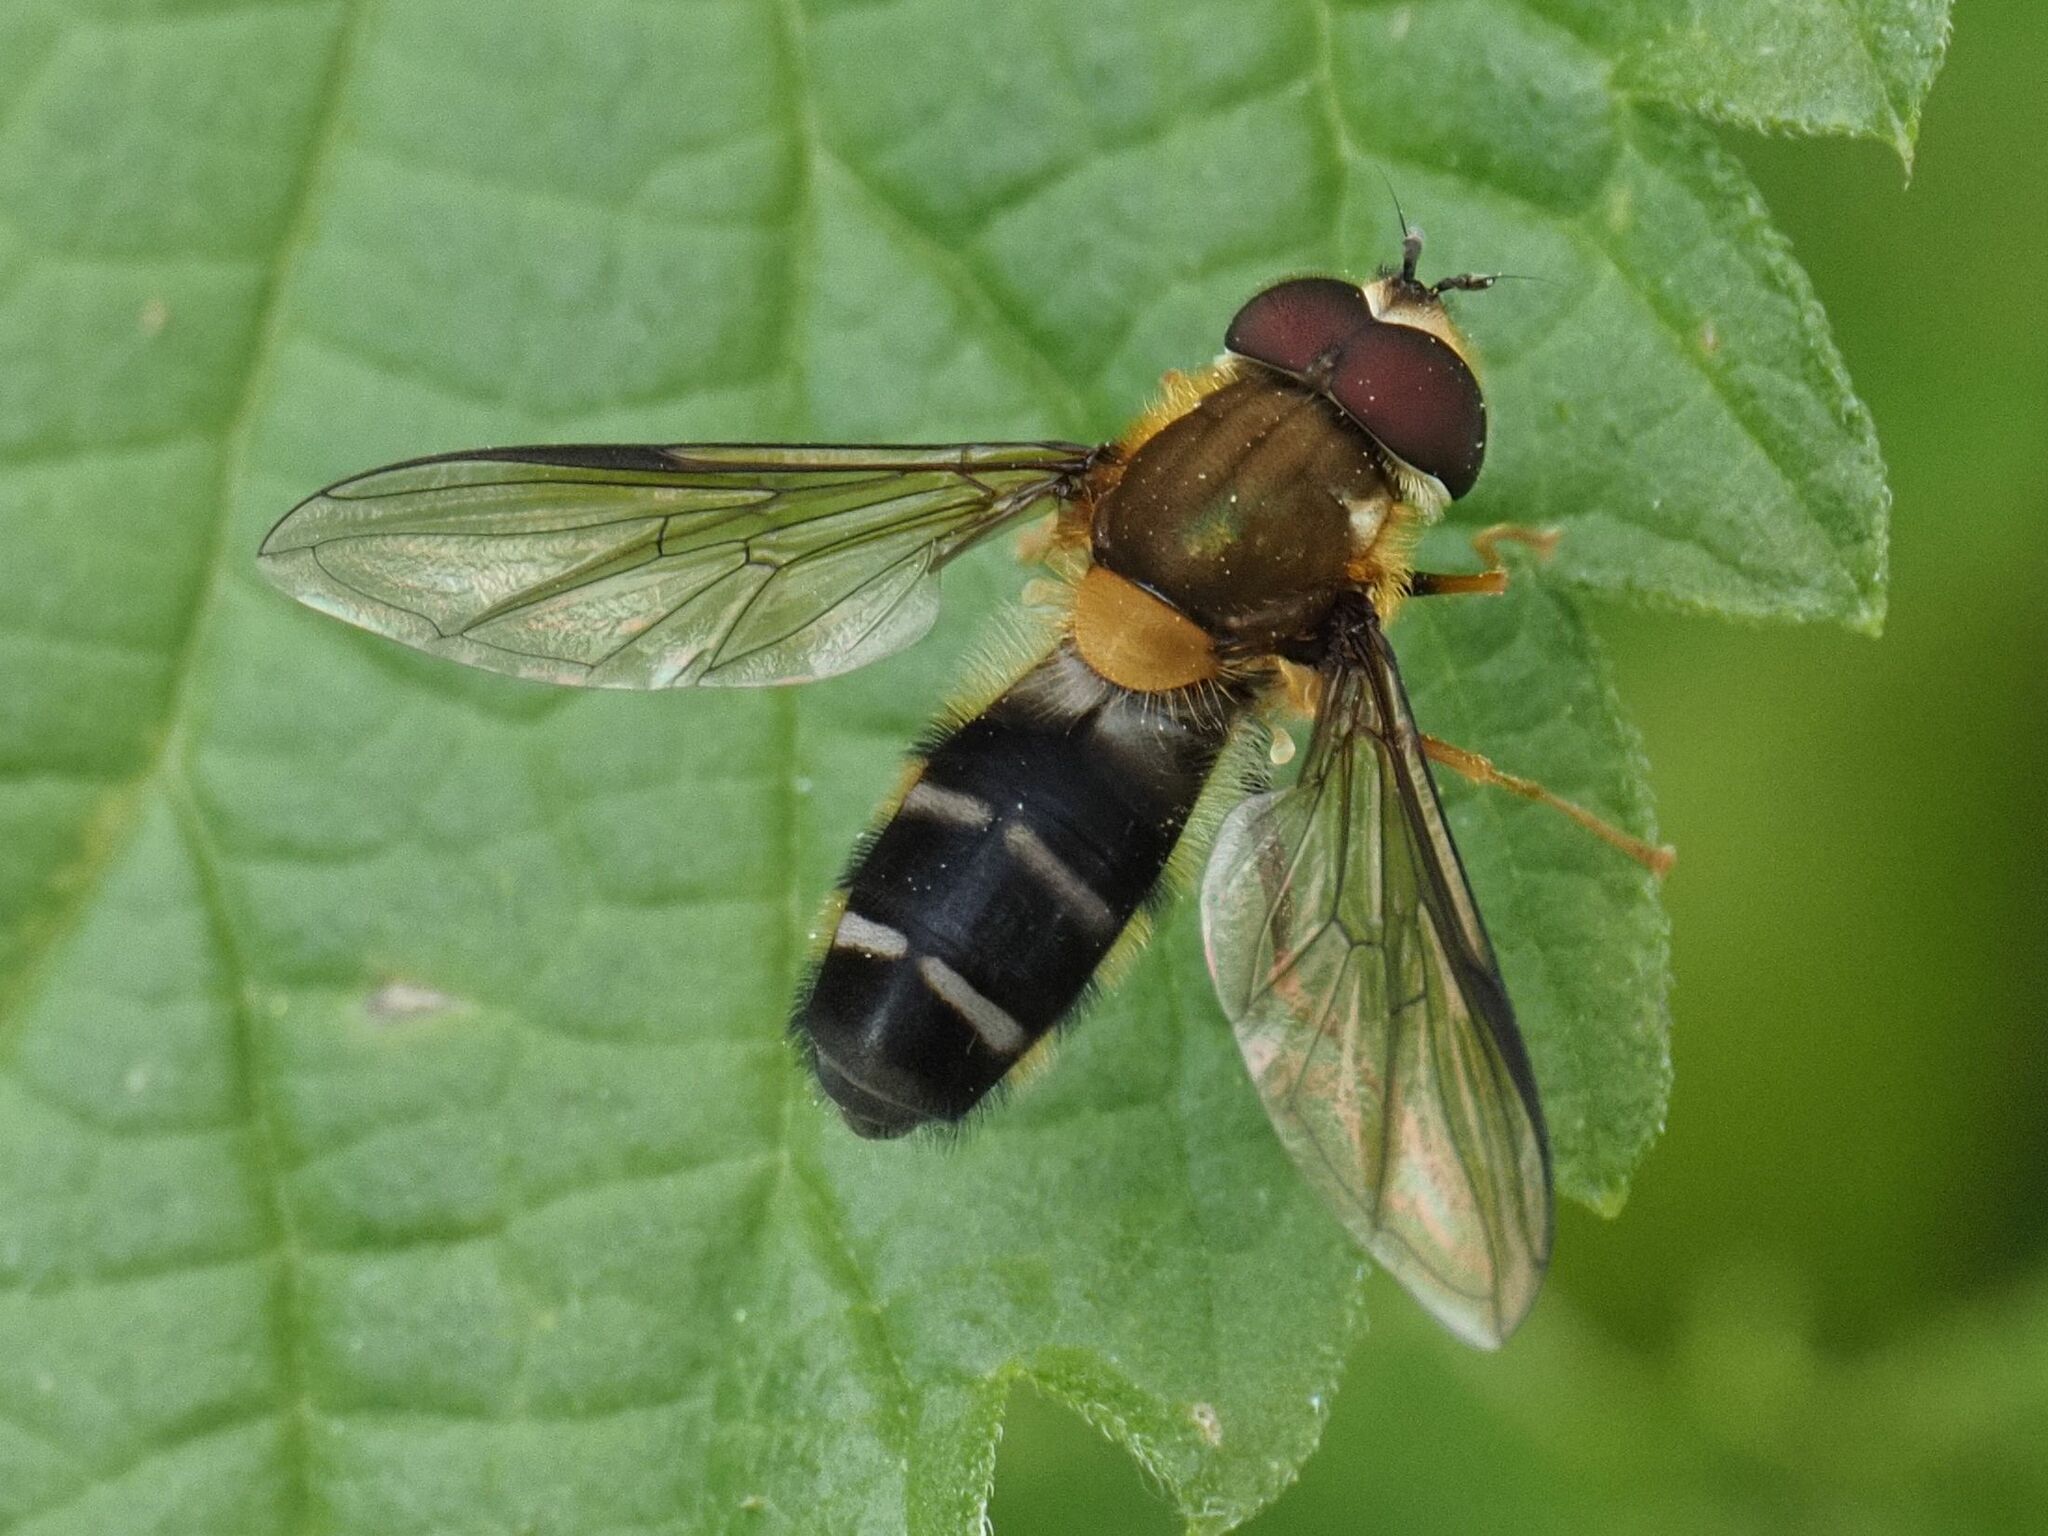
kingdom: Animalia
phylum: Arthropoda
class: Insecta
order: Diptera
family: Syrphidae
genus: Leucozona
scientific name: Leucozona glaucia
